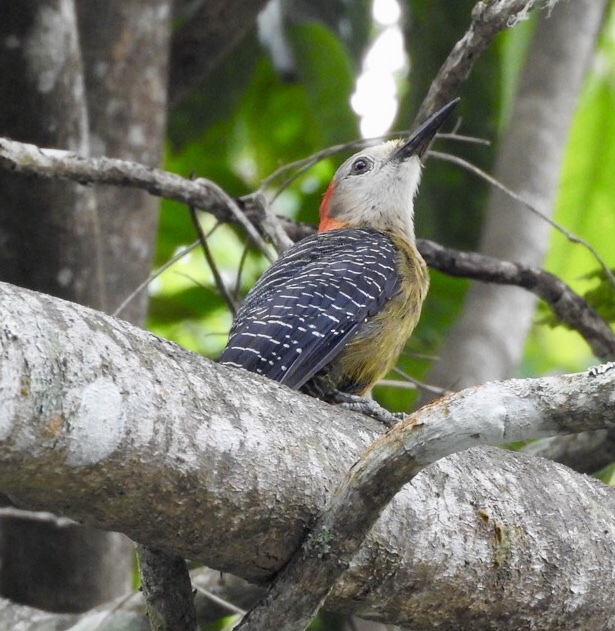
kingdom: Animalia
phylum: Chordata
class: Aves
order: Piciformes
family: Picidae
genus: Melanerpes
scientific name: Melanerpes radiolatus
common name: Jamaican woodpecker
